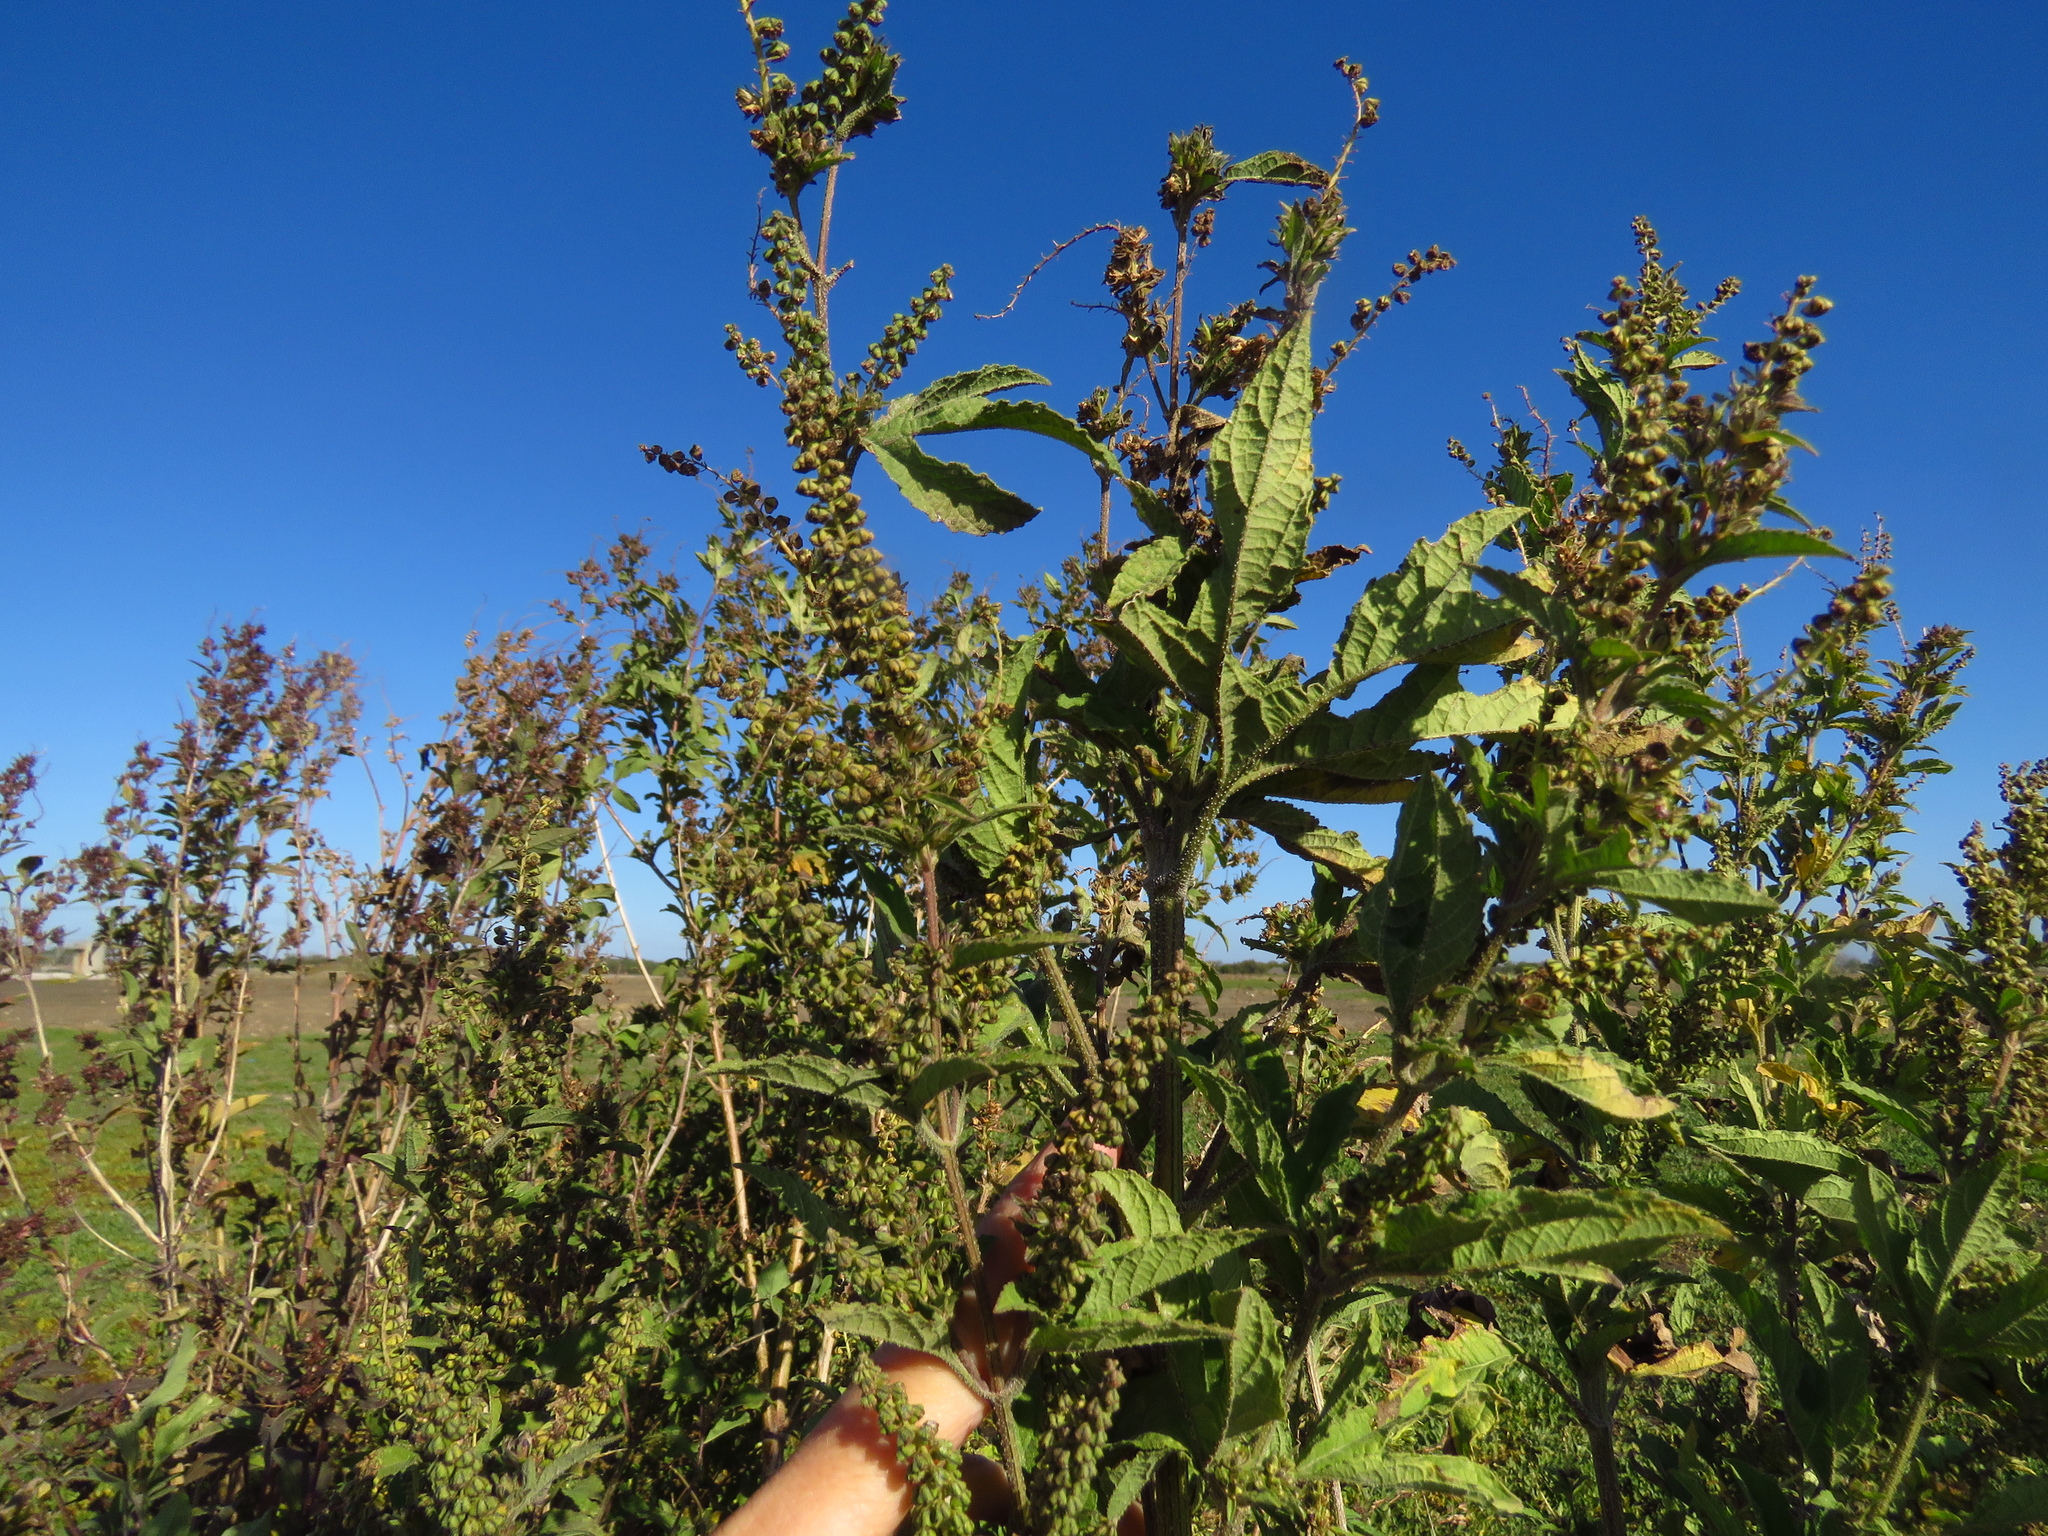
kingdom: Plantae
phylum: Tracheophyta
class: Magnoliopsida
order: Asterales
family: Asteraceae
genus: Ambrosia
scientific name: Ambrosia trifida
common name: Giant ragweed
